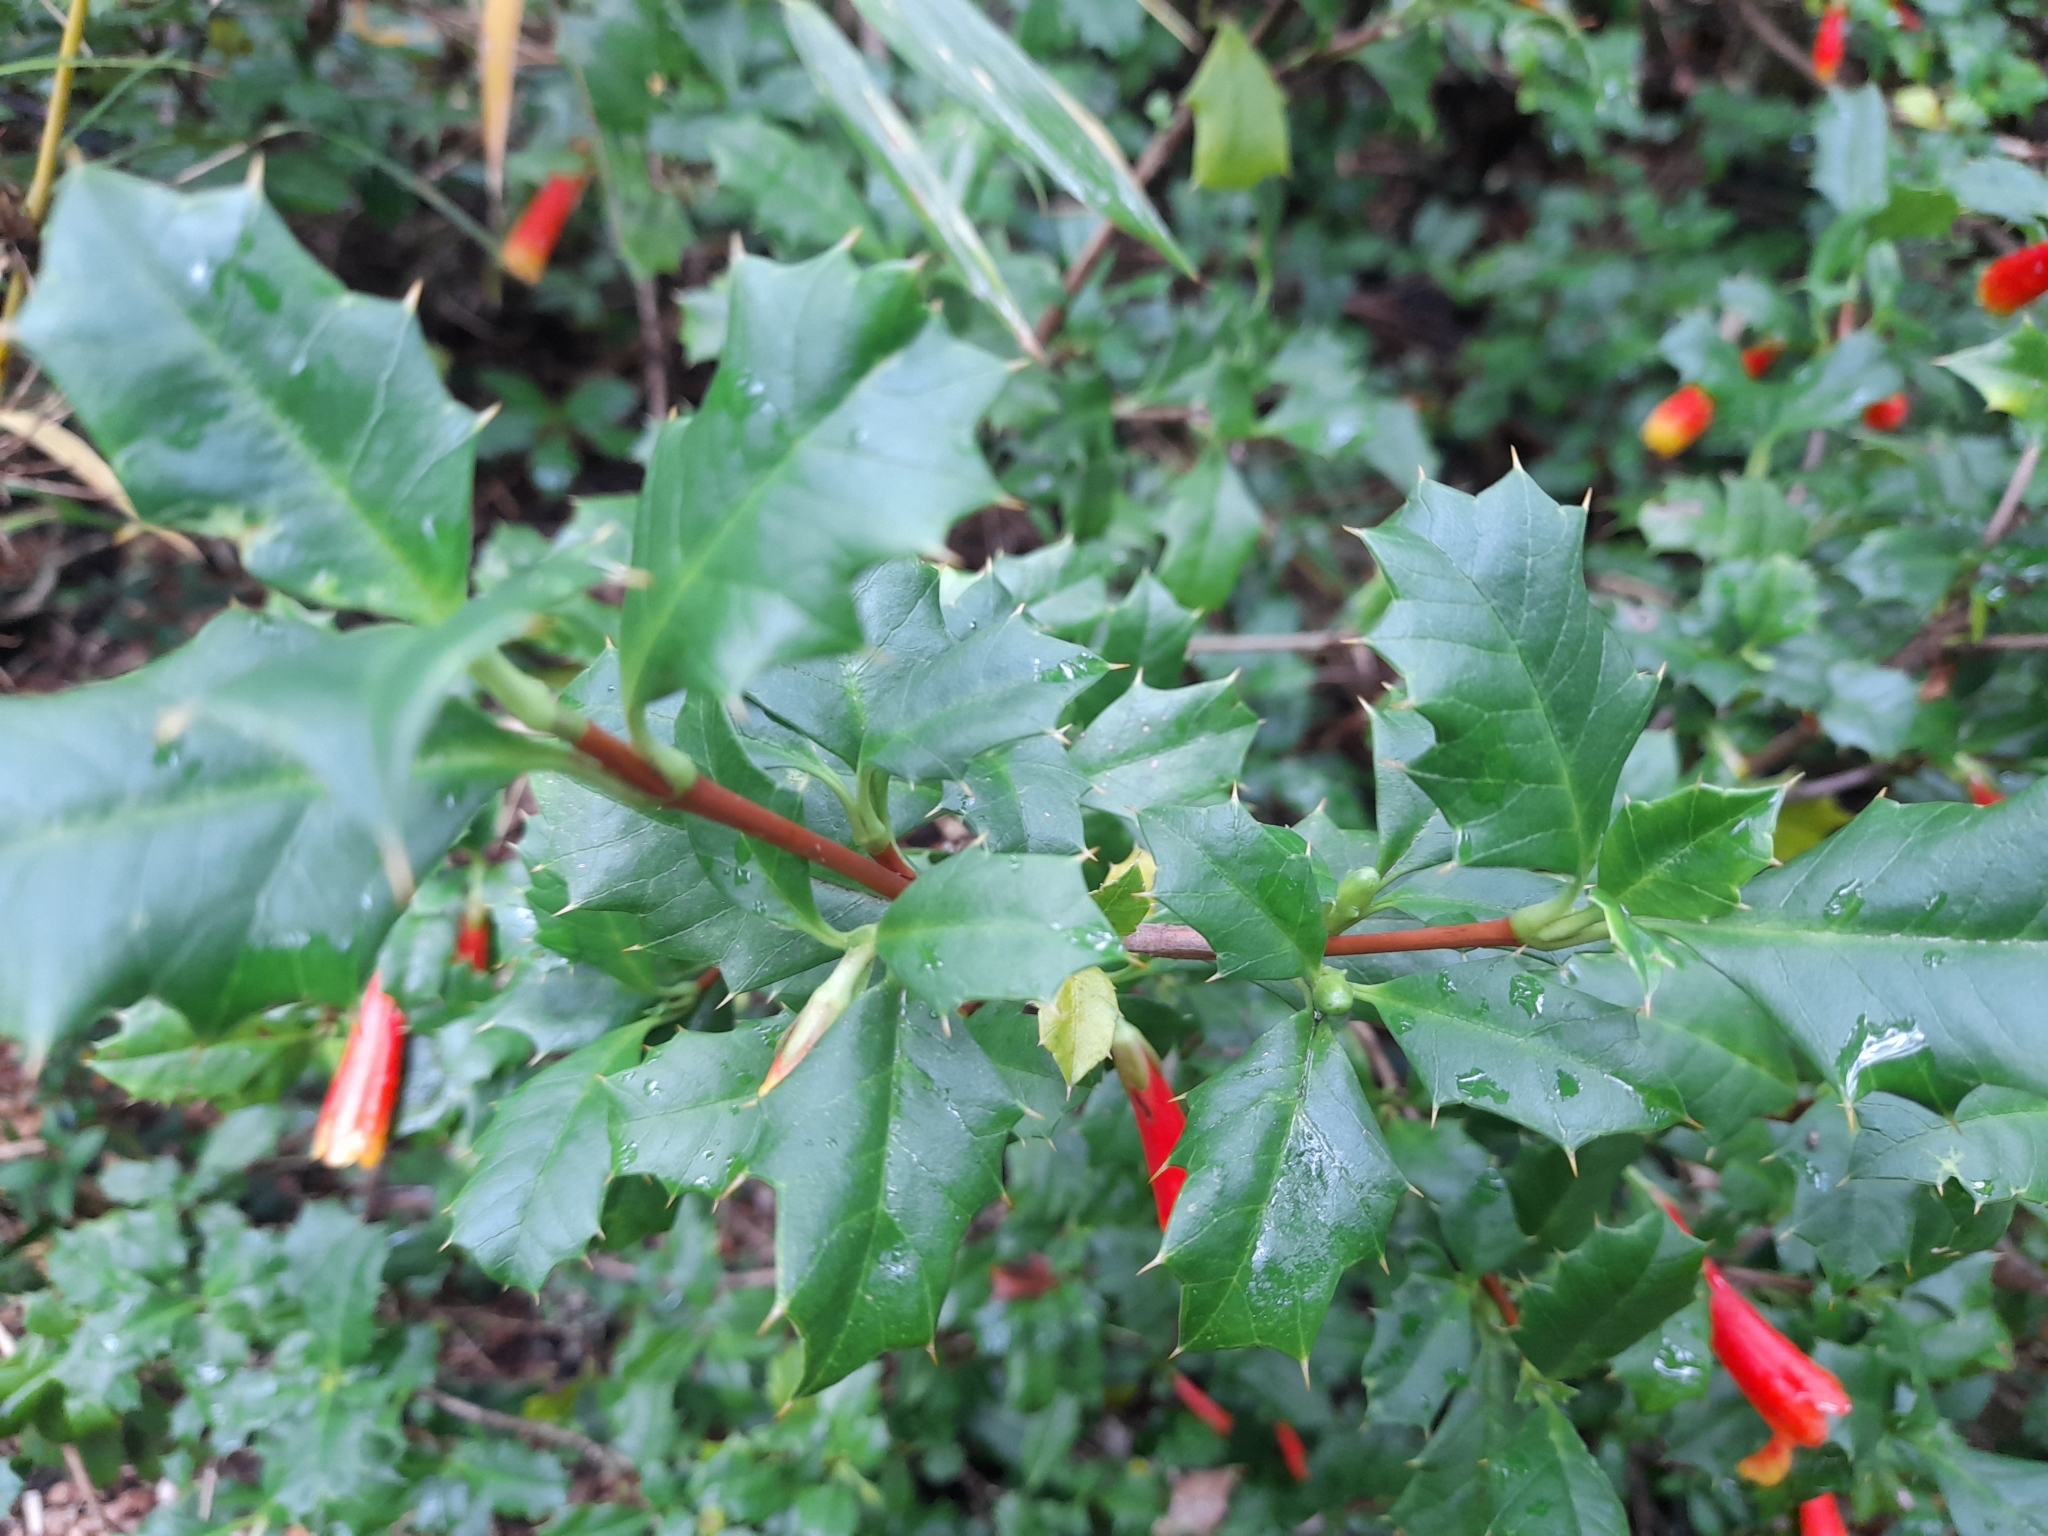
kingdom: Plantae
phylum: Tracheophyta
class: Magnoliopsida
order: Bruniales
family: Columelliaceae
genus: Desfontainia
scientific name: Desfontainia fulgens
